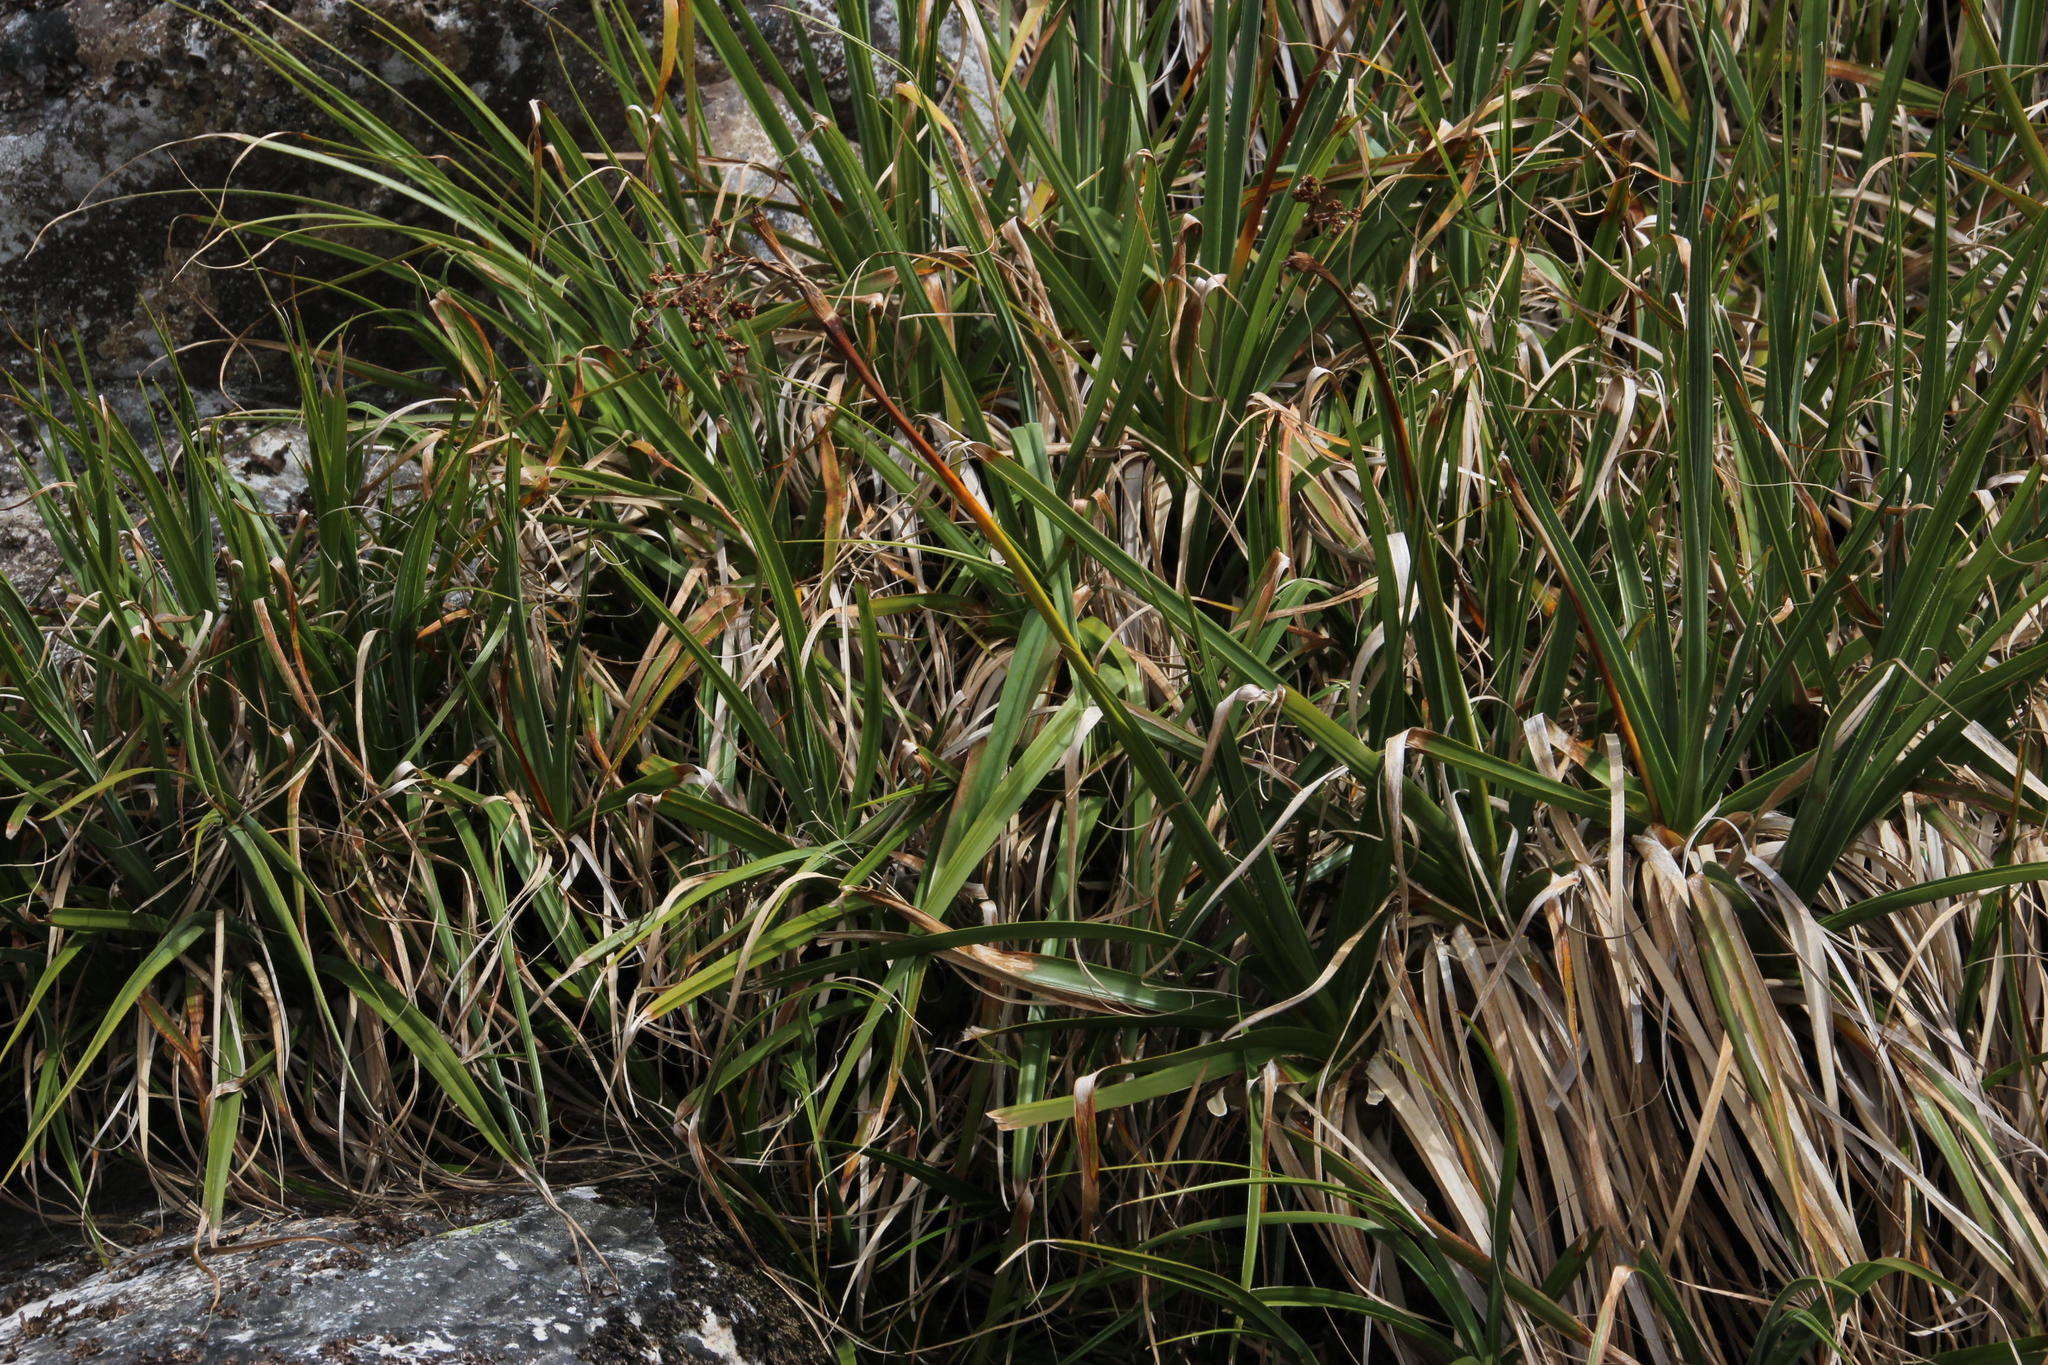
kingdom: Plantae
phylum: Tracheophyta
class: Liliopsida
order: Poales
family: Thurniaceae
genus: Prionium
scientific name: Prionium serratum
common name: Palmiet
